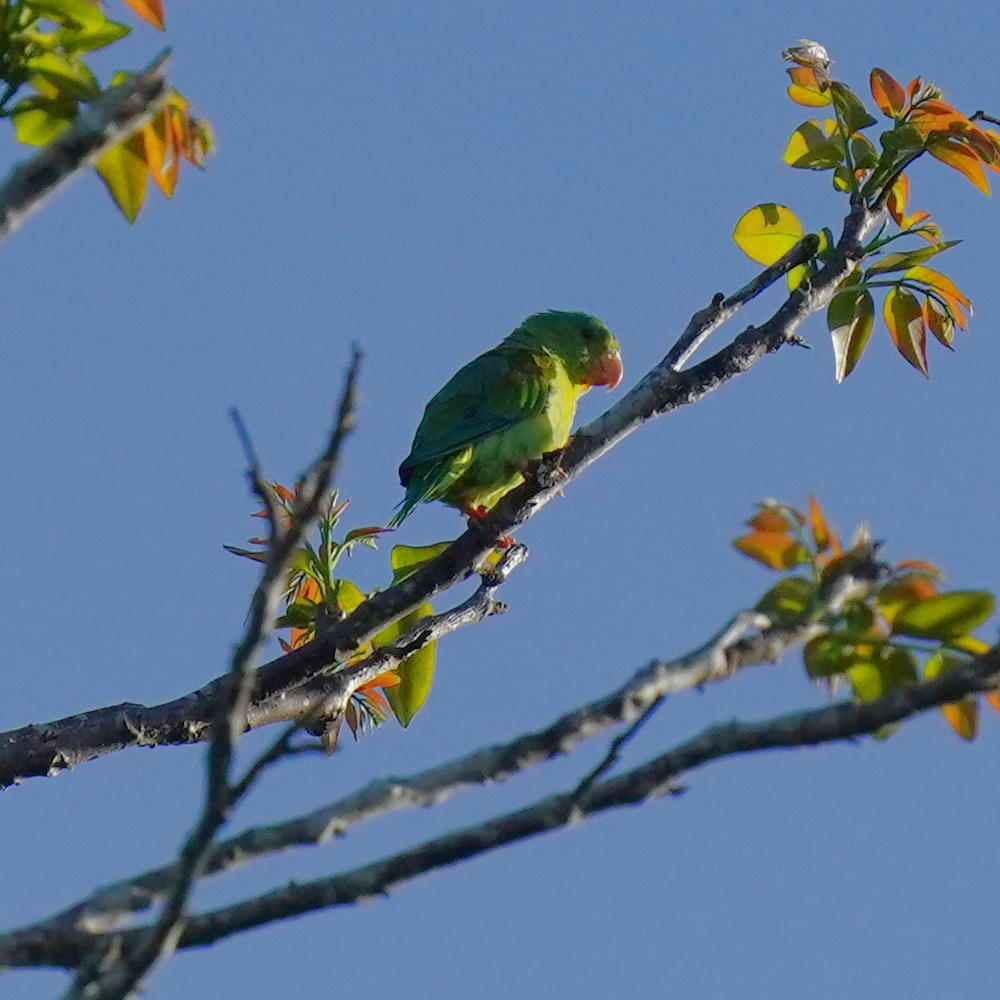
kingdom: Animalia
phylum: Chordata
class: Aves
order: Psittaciformes
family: Psittacidae
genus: Brotogeris
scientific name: Brotogeris jugularis
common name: Orange-chinned parakeet
